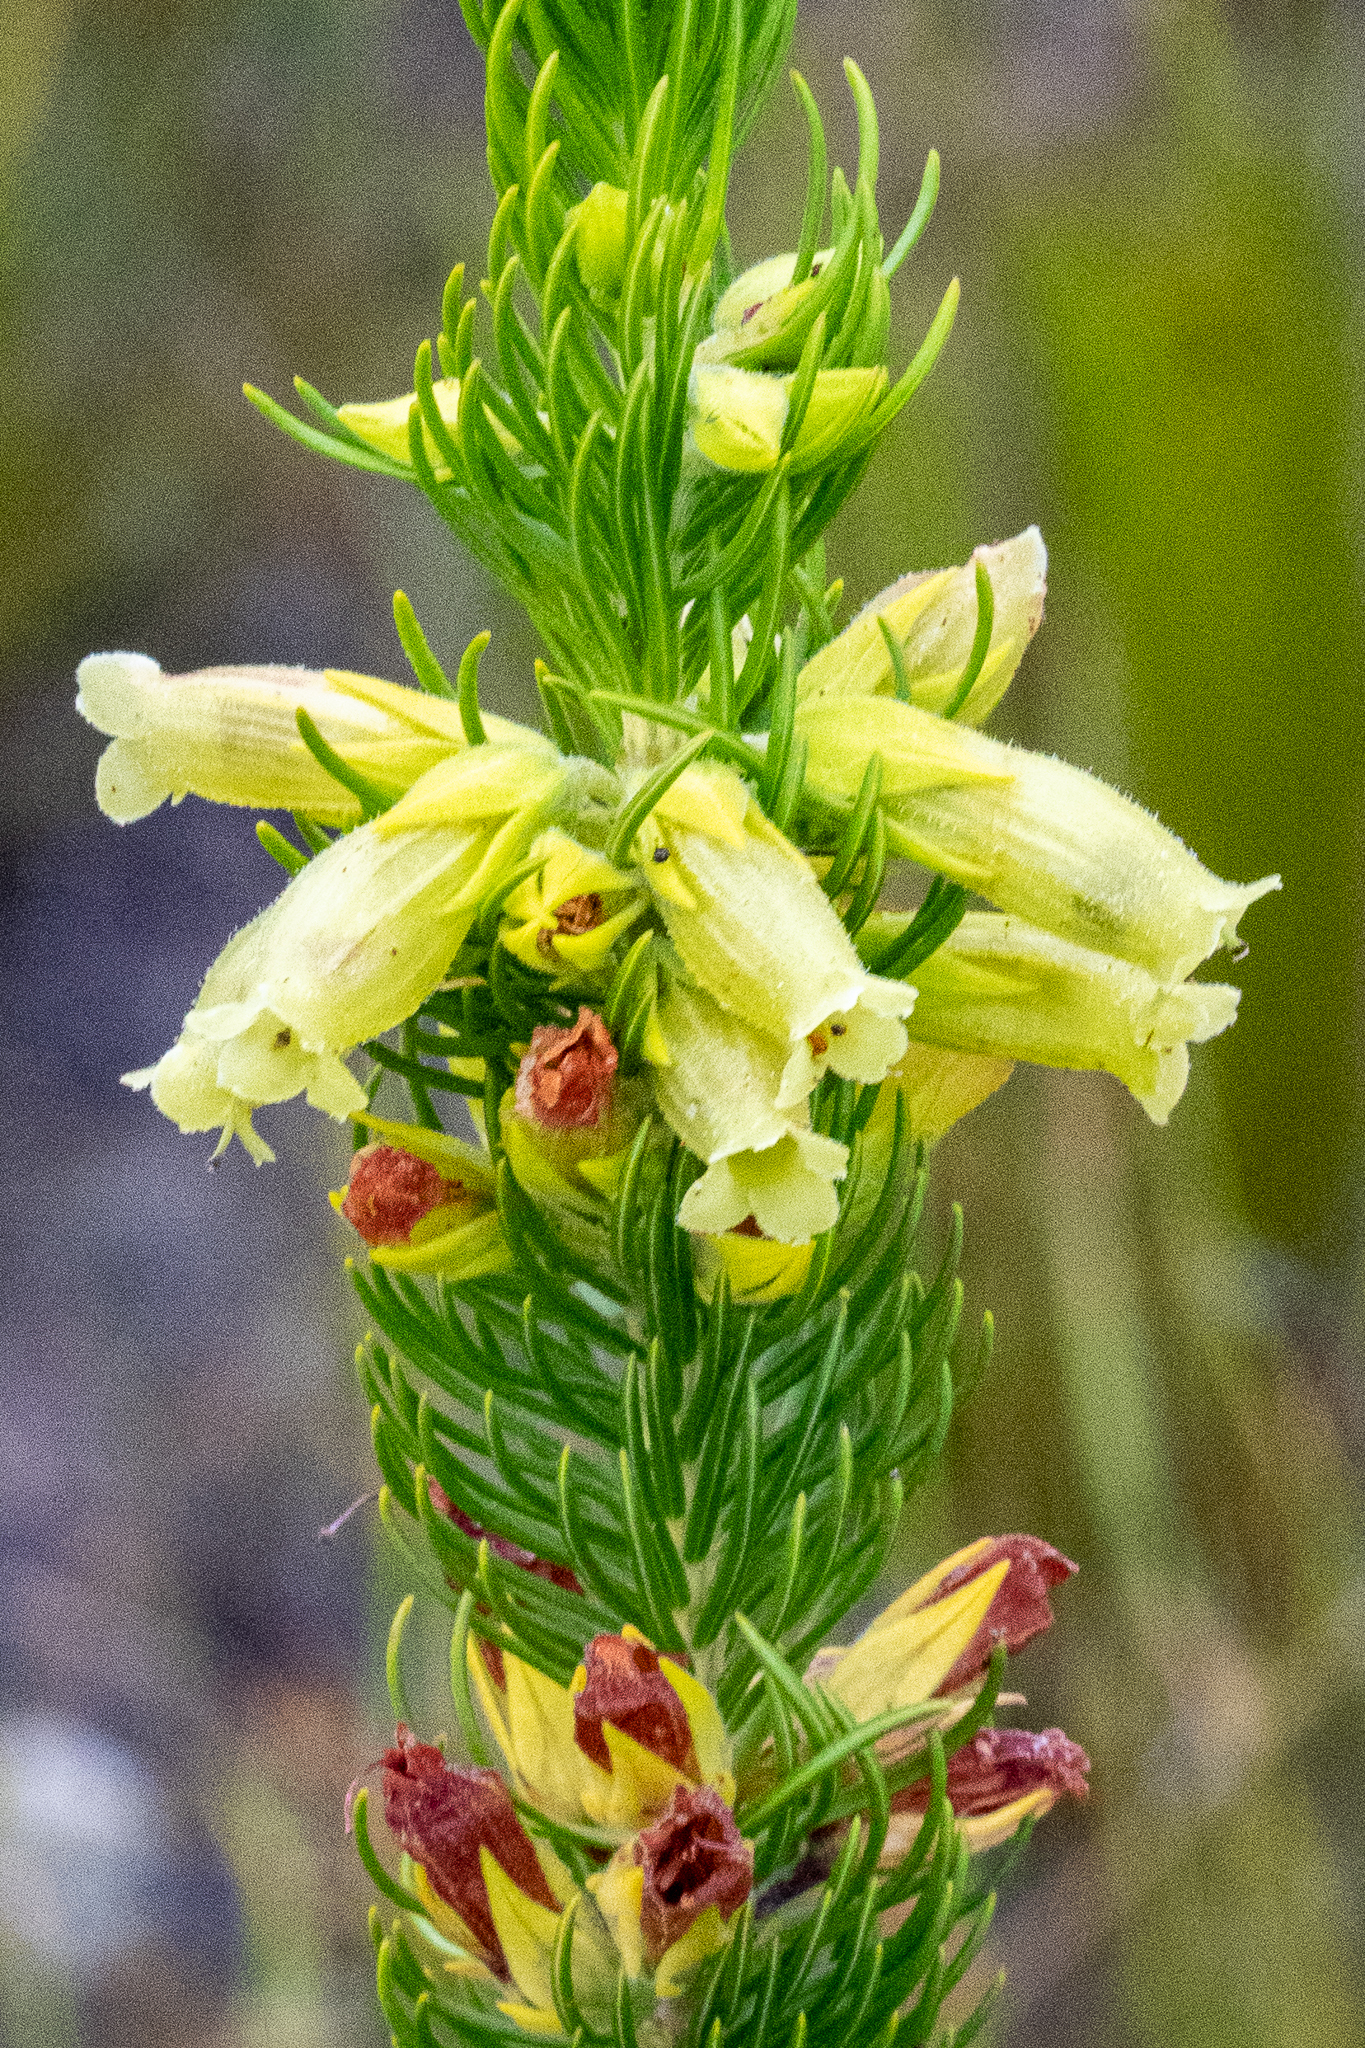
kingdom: Plantae
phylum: Tracheophyta
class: Magnoliopsida
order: Ericales
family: Ericaceae
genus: Erica
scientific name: Erica viscaria
